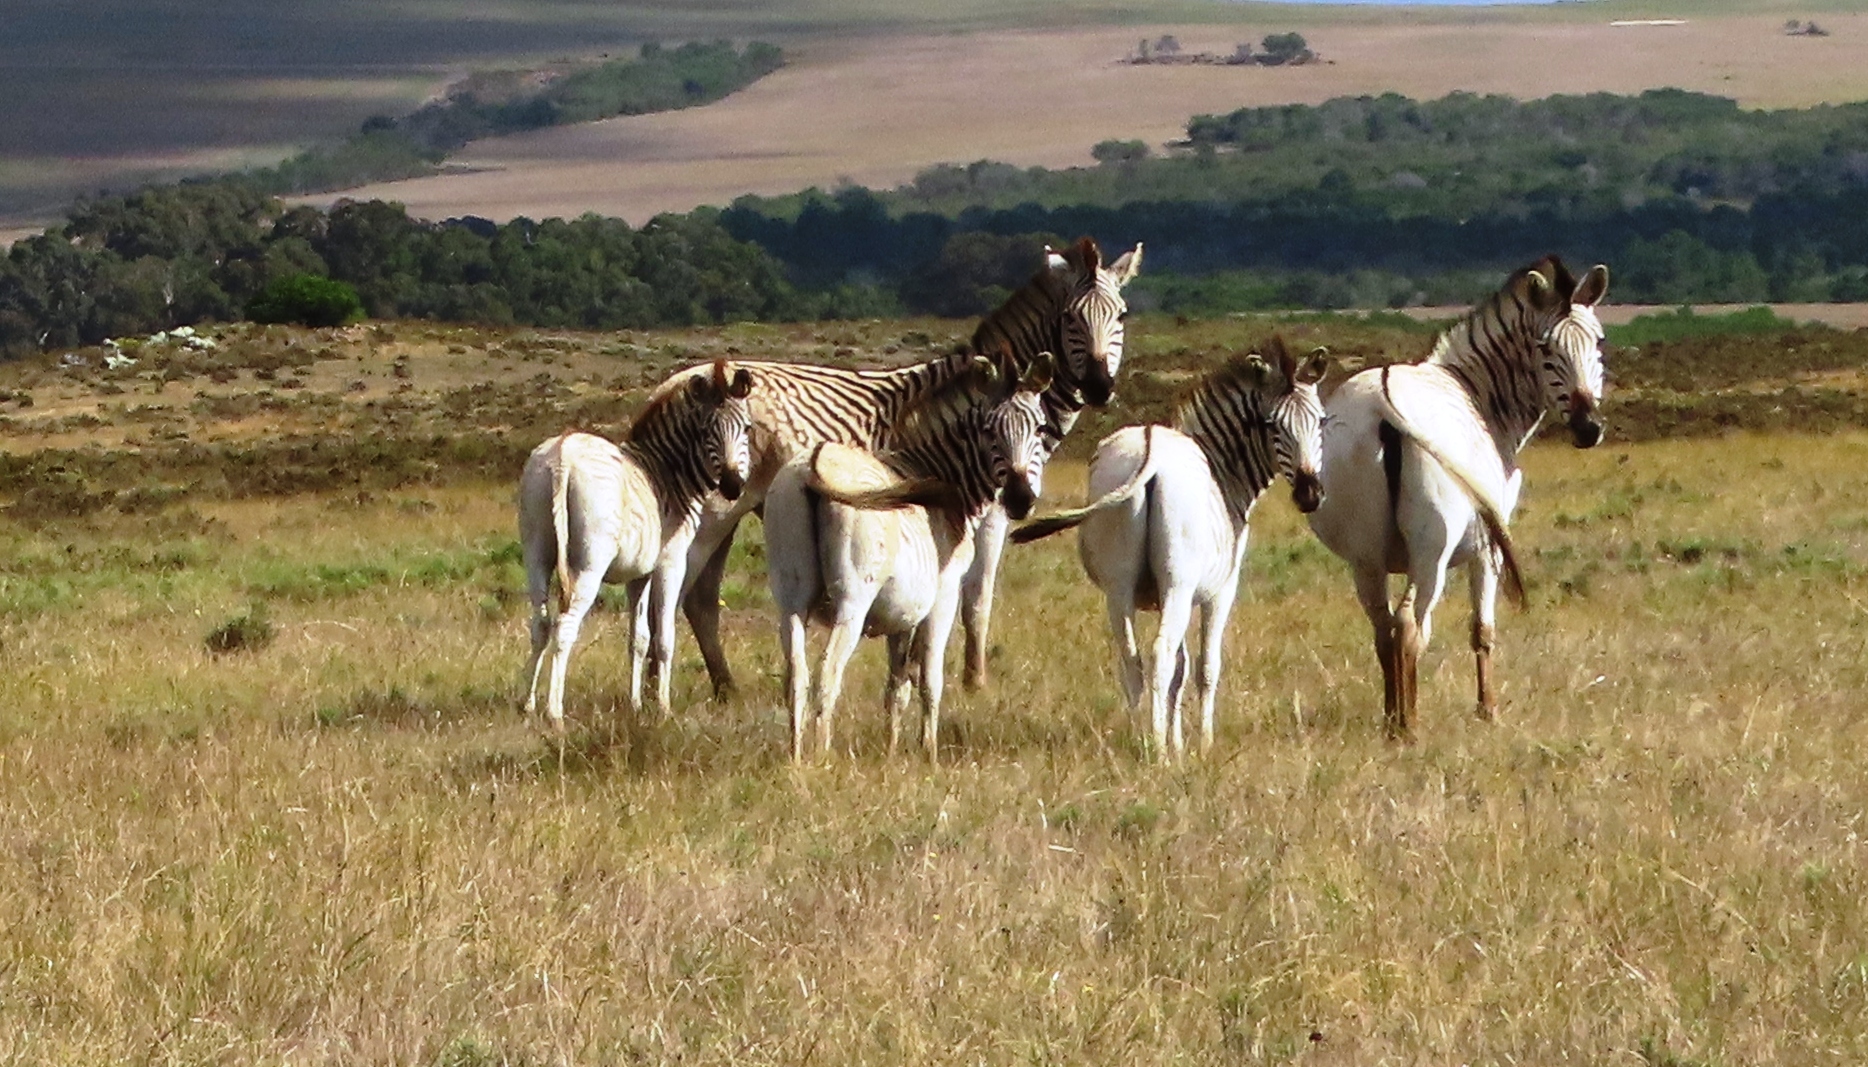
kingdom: Animalia
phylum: Chordata
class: Mammalia
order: Perissodactyla
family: Equidae
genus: Equus
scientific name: Equus quagga
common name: Plains zebra
